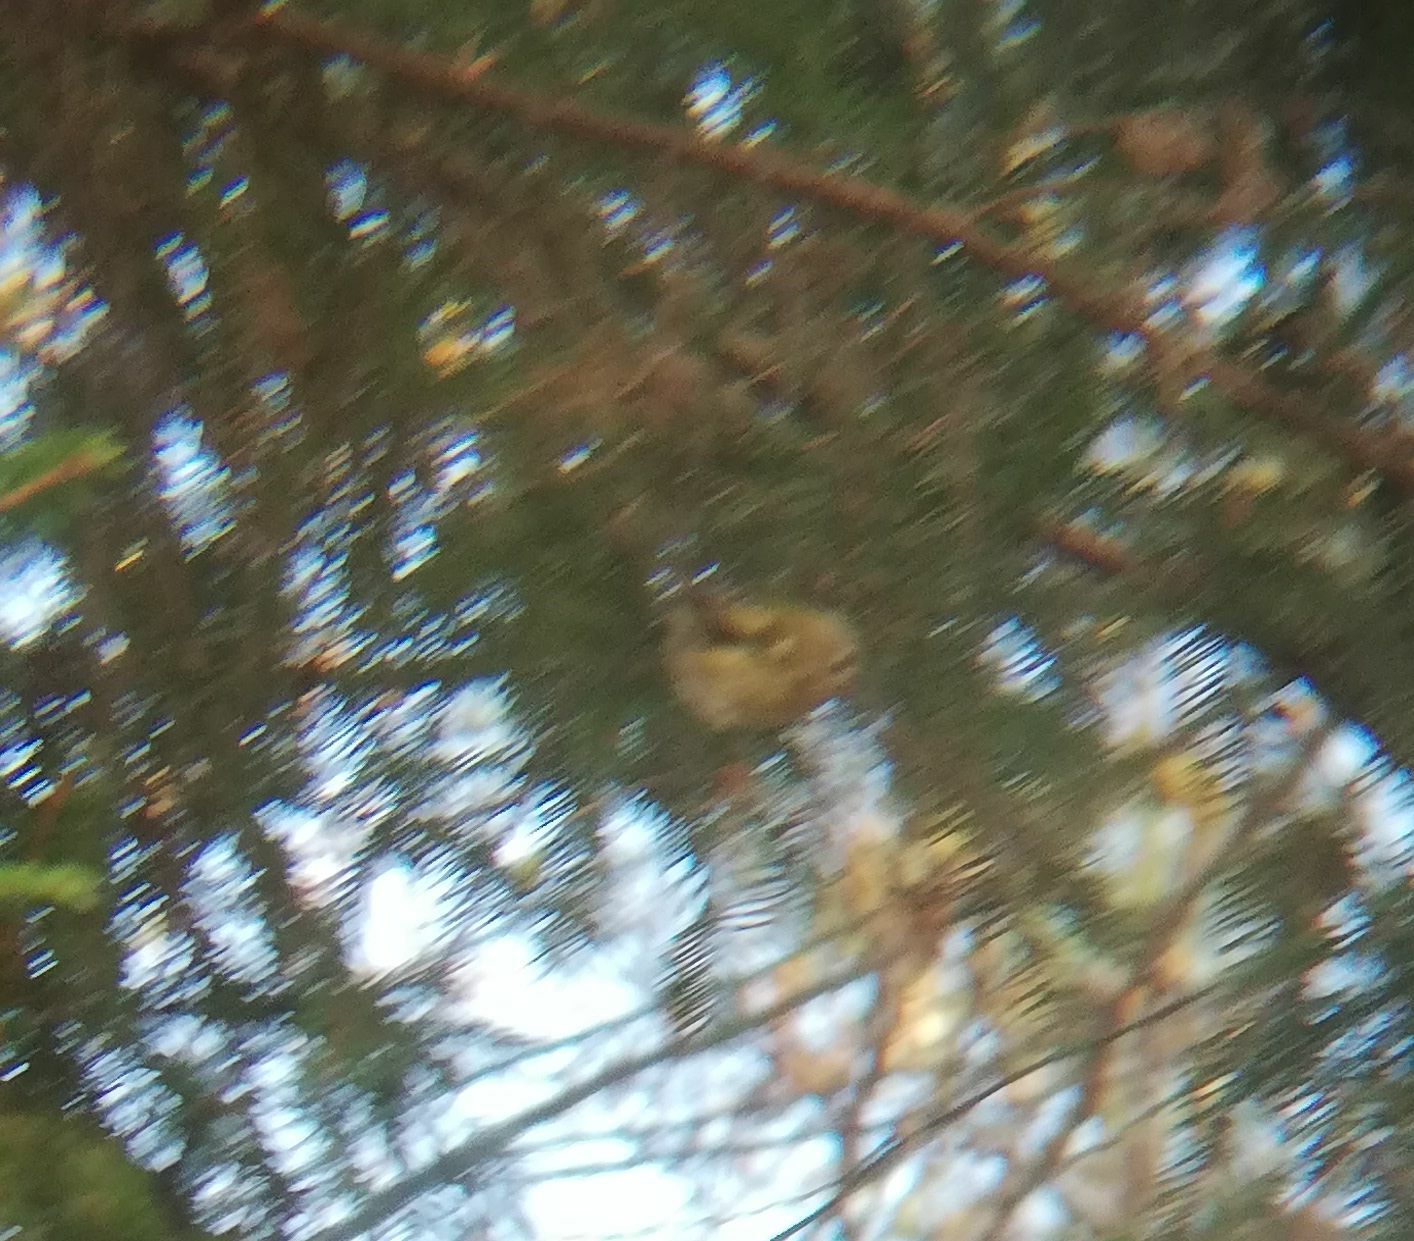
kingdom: Animalia
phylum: Chordata
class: Aves
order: Passeriformes
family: Regulidae
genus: Regulus
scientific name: Regulus regulus
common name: Goldcrest
